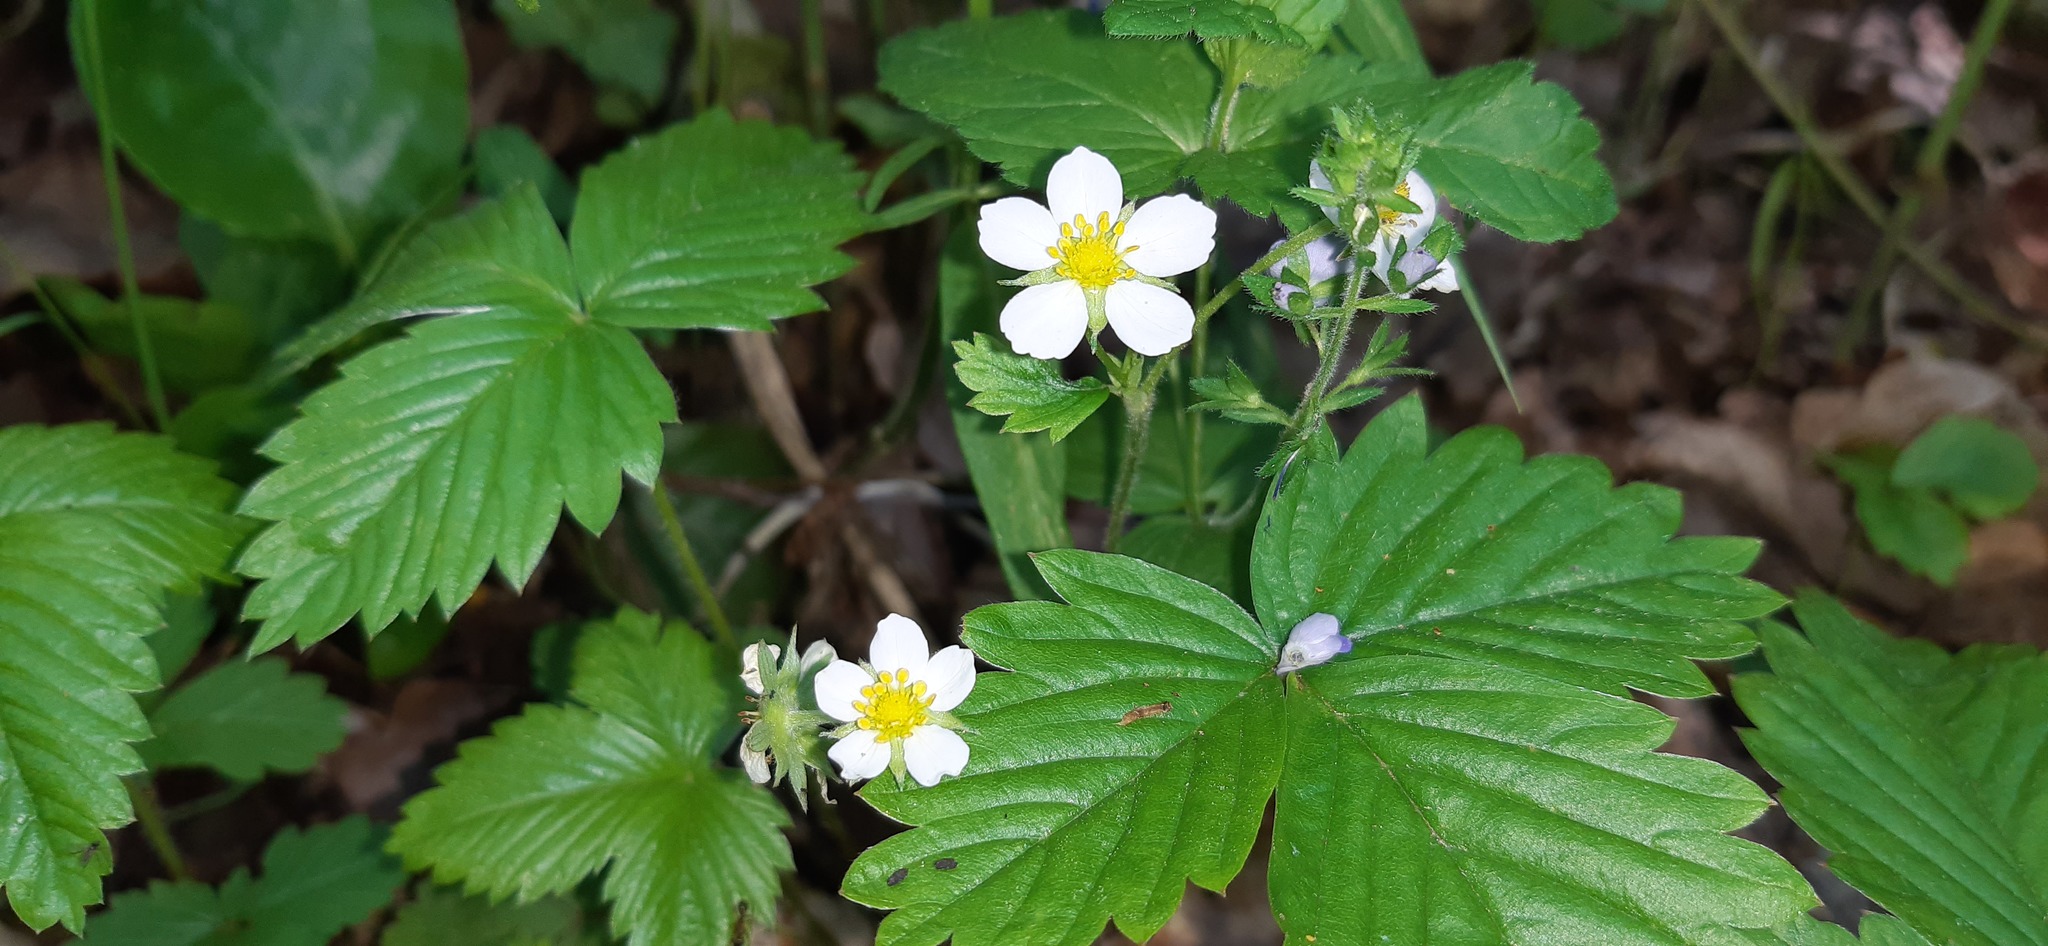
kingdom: Plantae
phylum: Tracheophyta
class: Magnoliopsida
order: Rosales
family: Rosaceae
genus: Fragaria
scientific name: Fragaria vesca
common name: Wild strawberry
